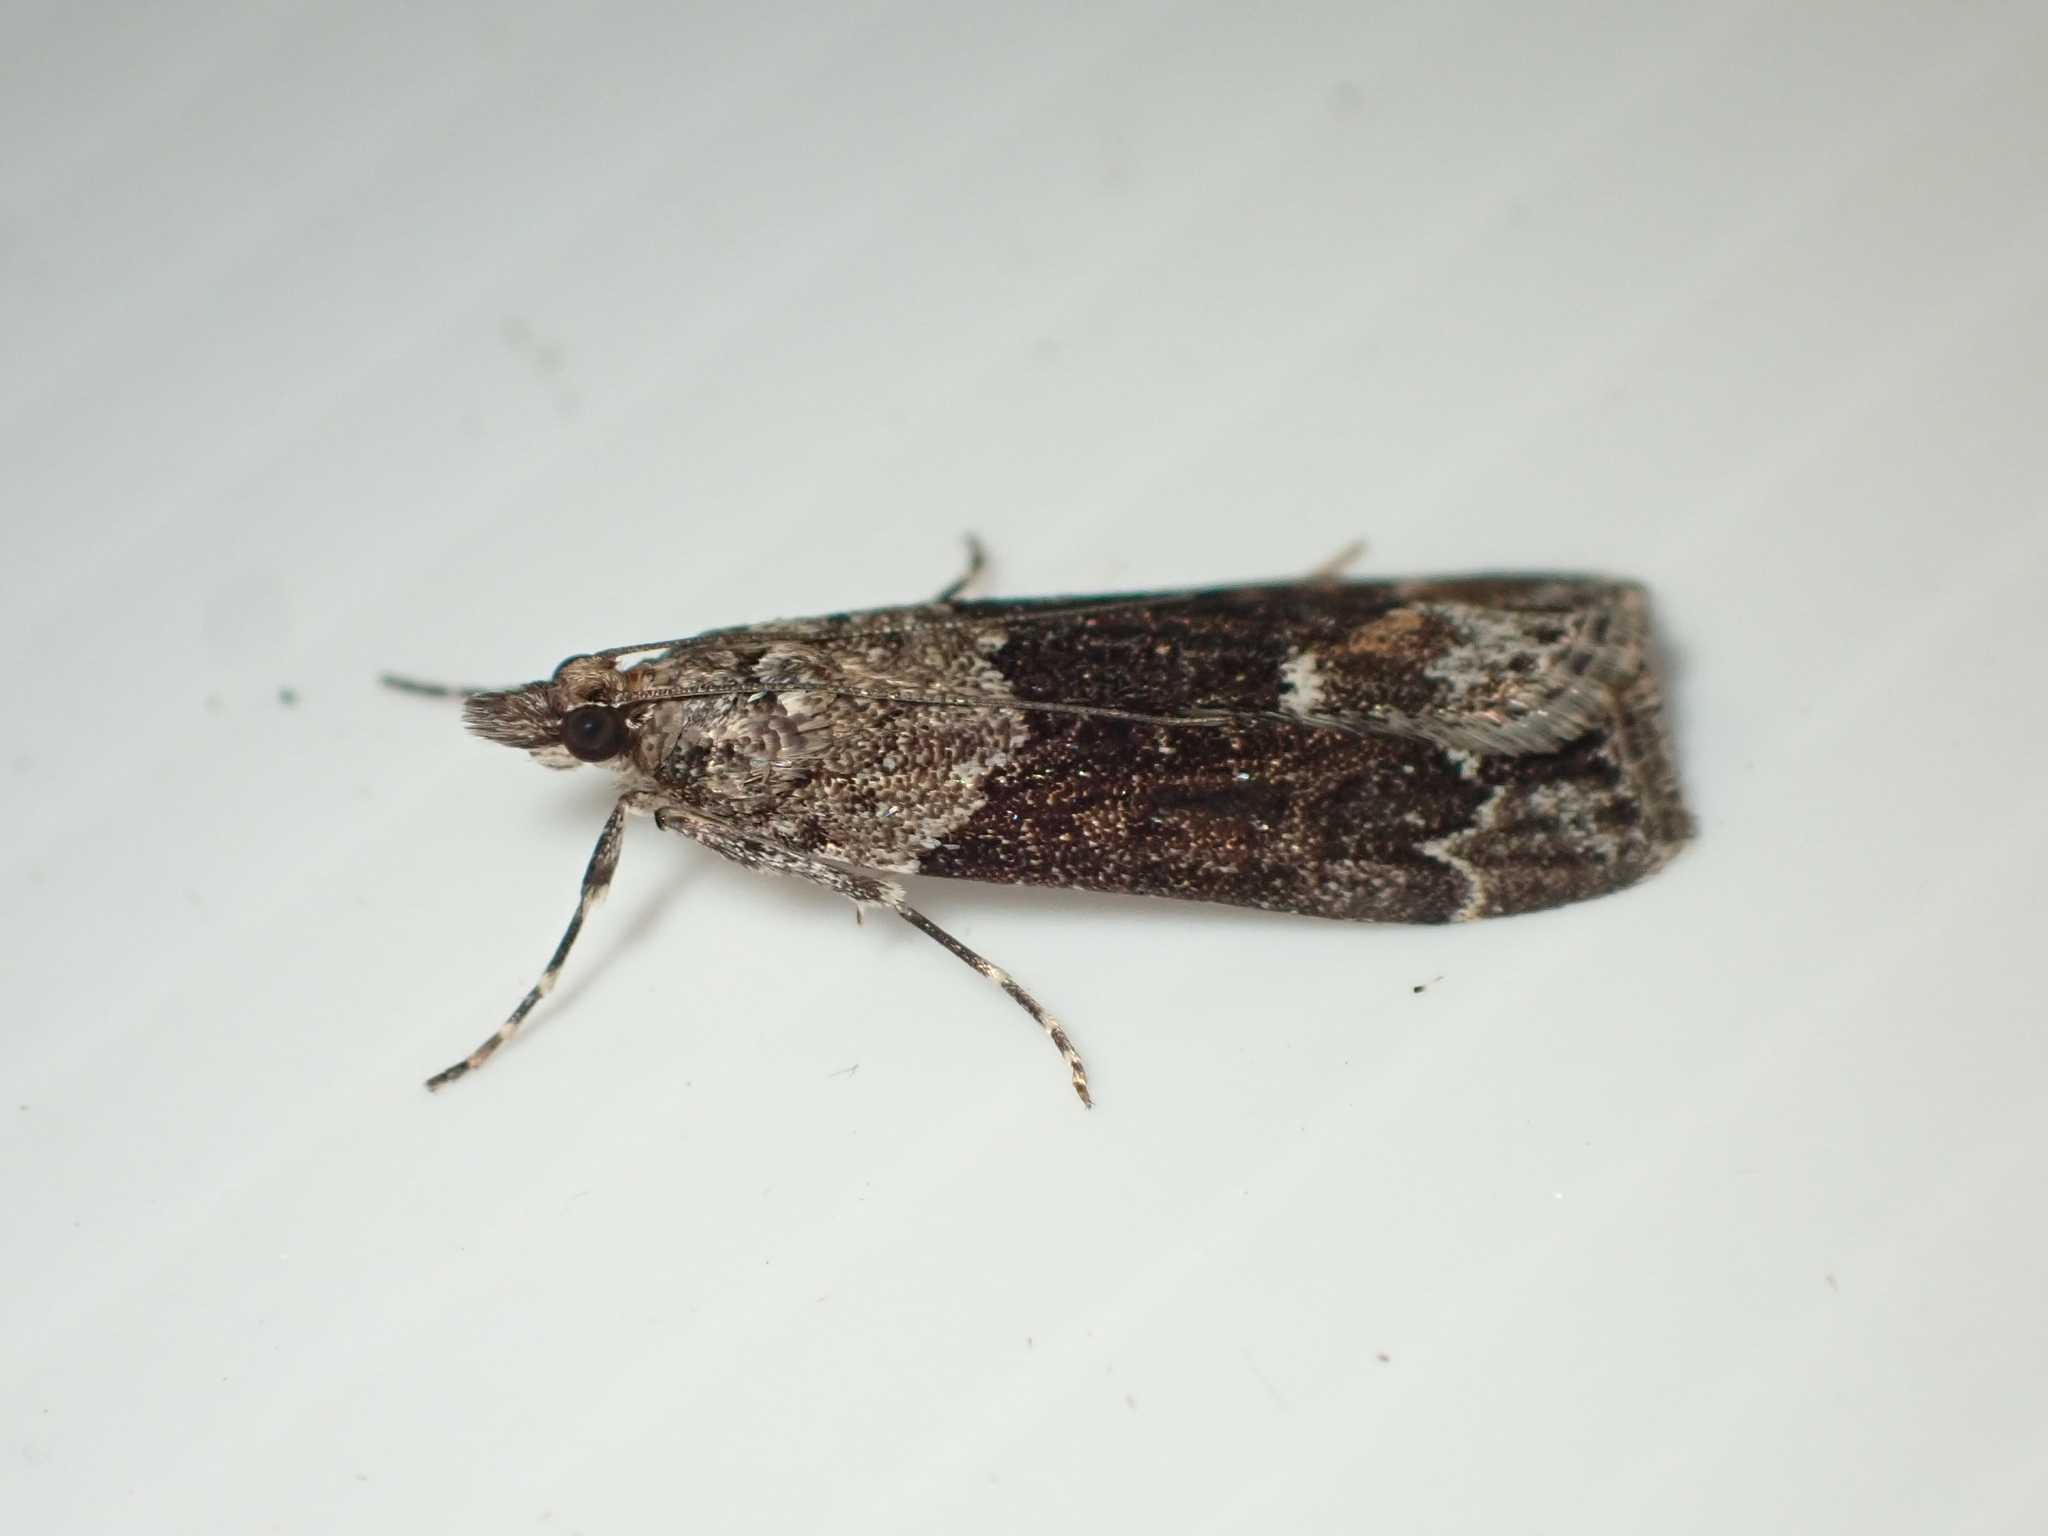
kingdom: Animalia
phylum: Arthropoda
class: Insecta
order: Lepidoptera
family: Crambidae
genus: Eudonia
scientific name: Eudonia submarginalis
